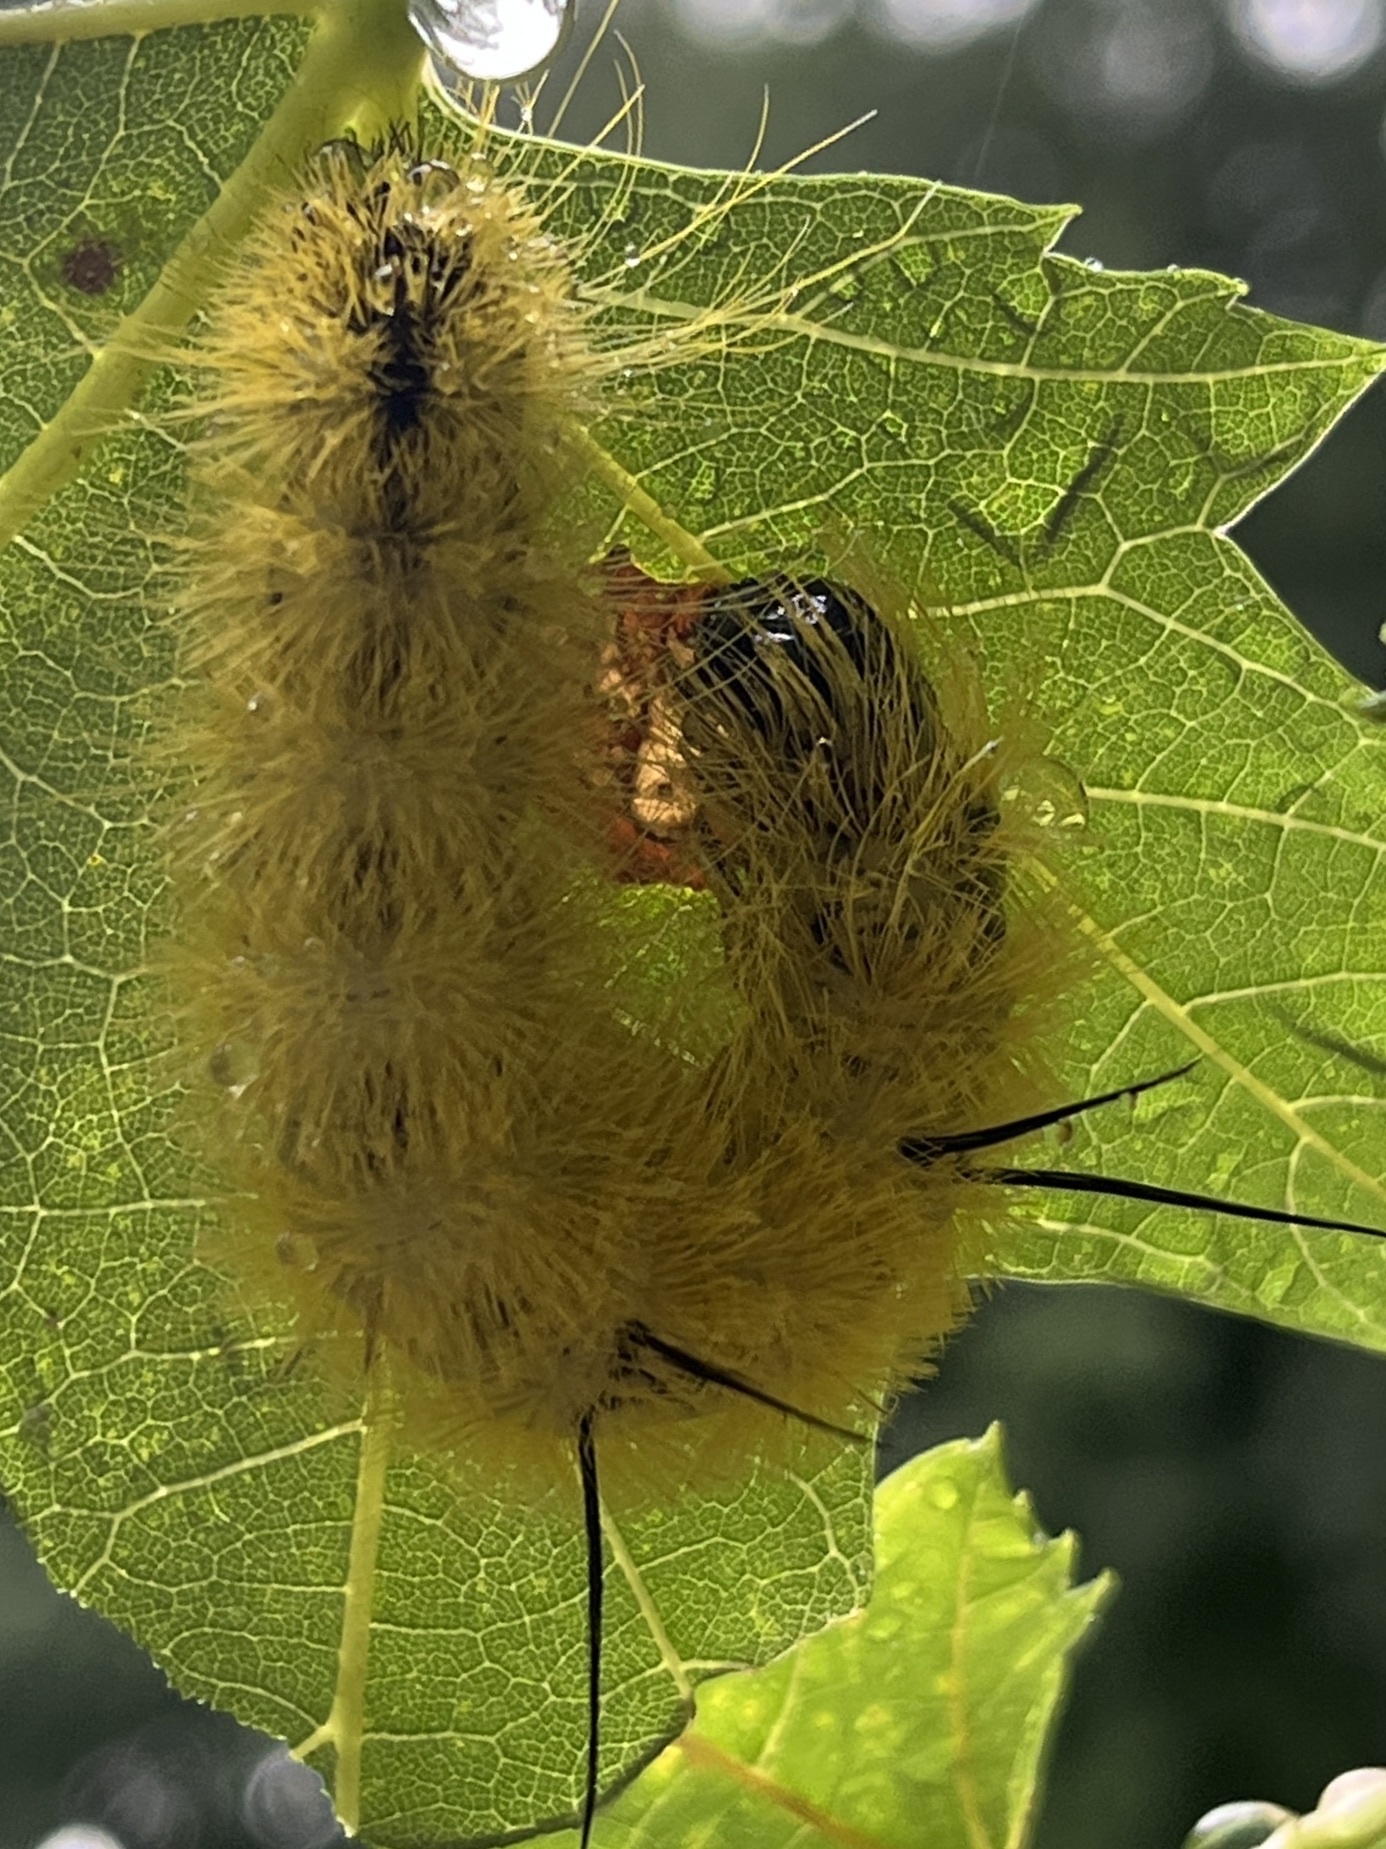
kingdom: Animalia
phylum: Arthropoda
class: Insecta
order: Lepidoptera
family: Noctuidae
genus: Acronicta
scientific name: Acronicta americana
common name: American dagger
